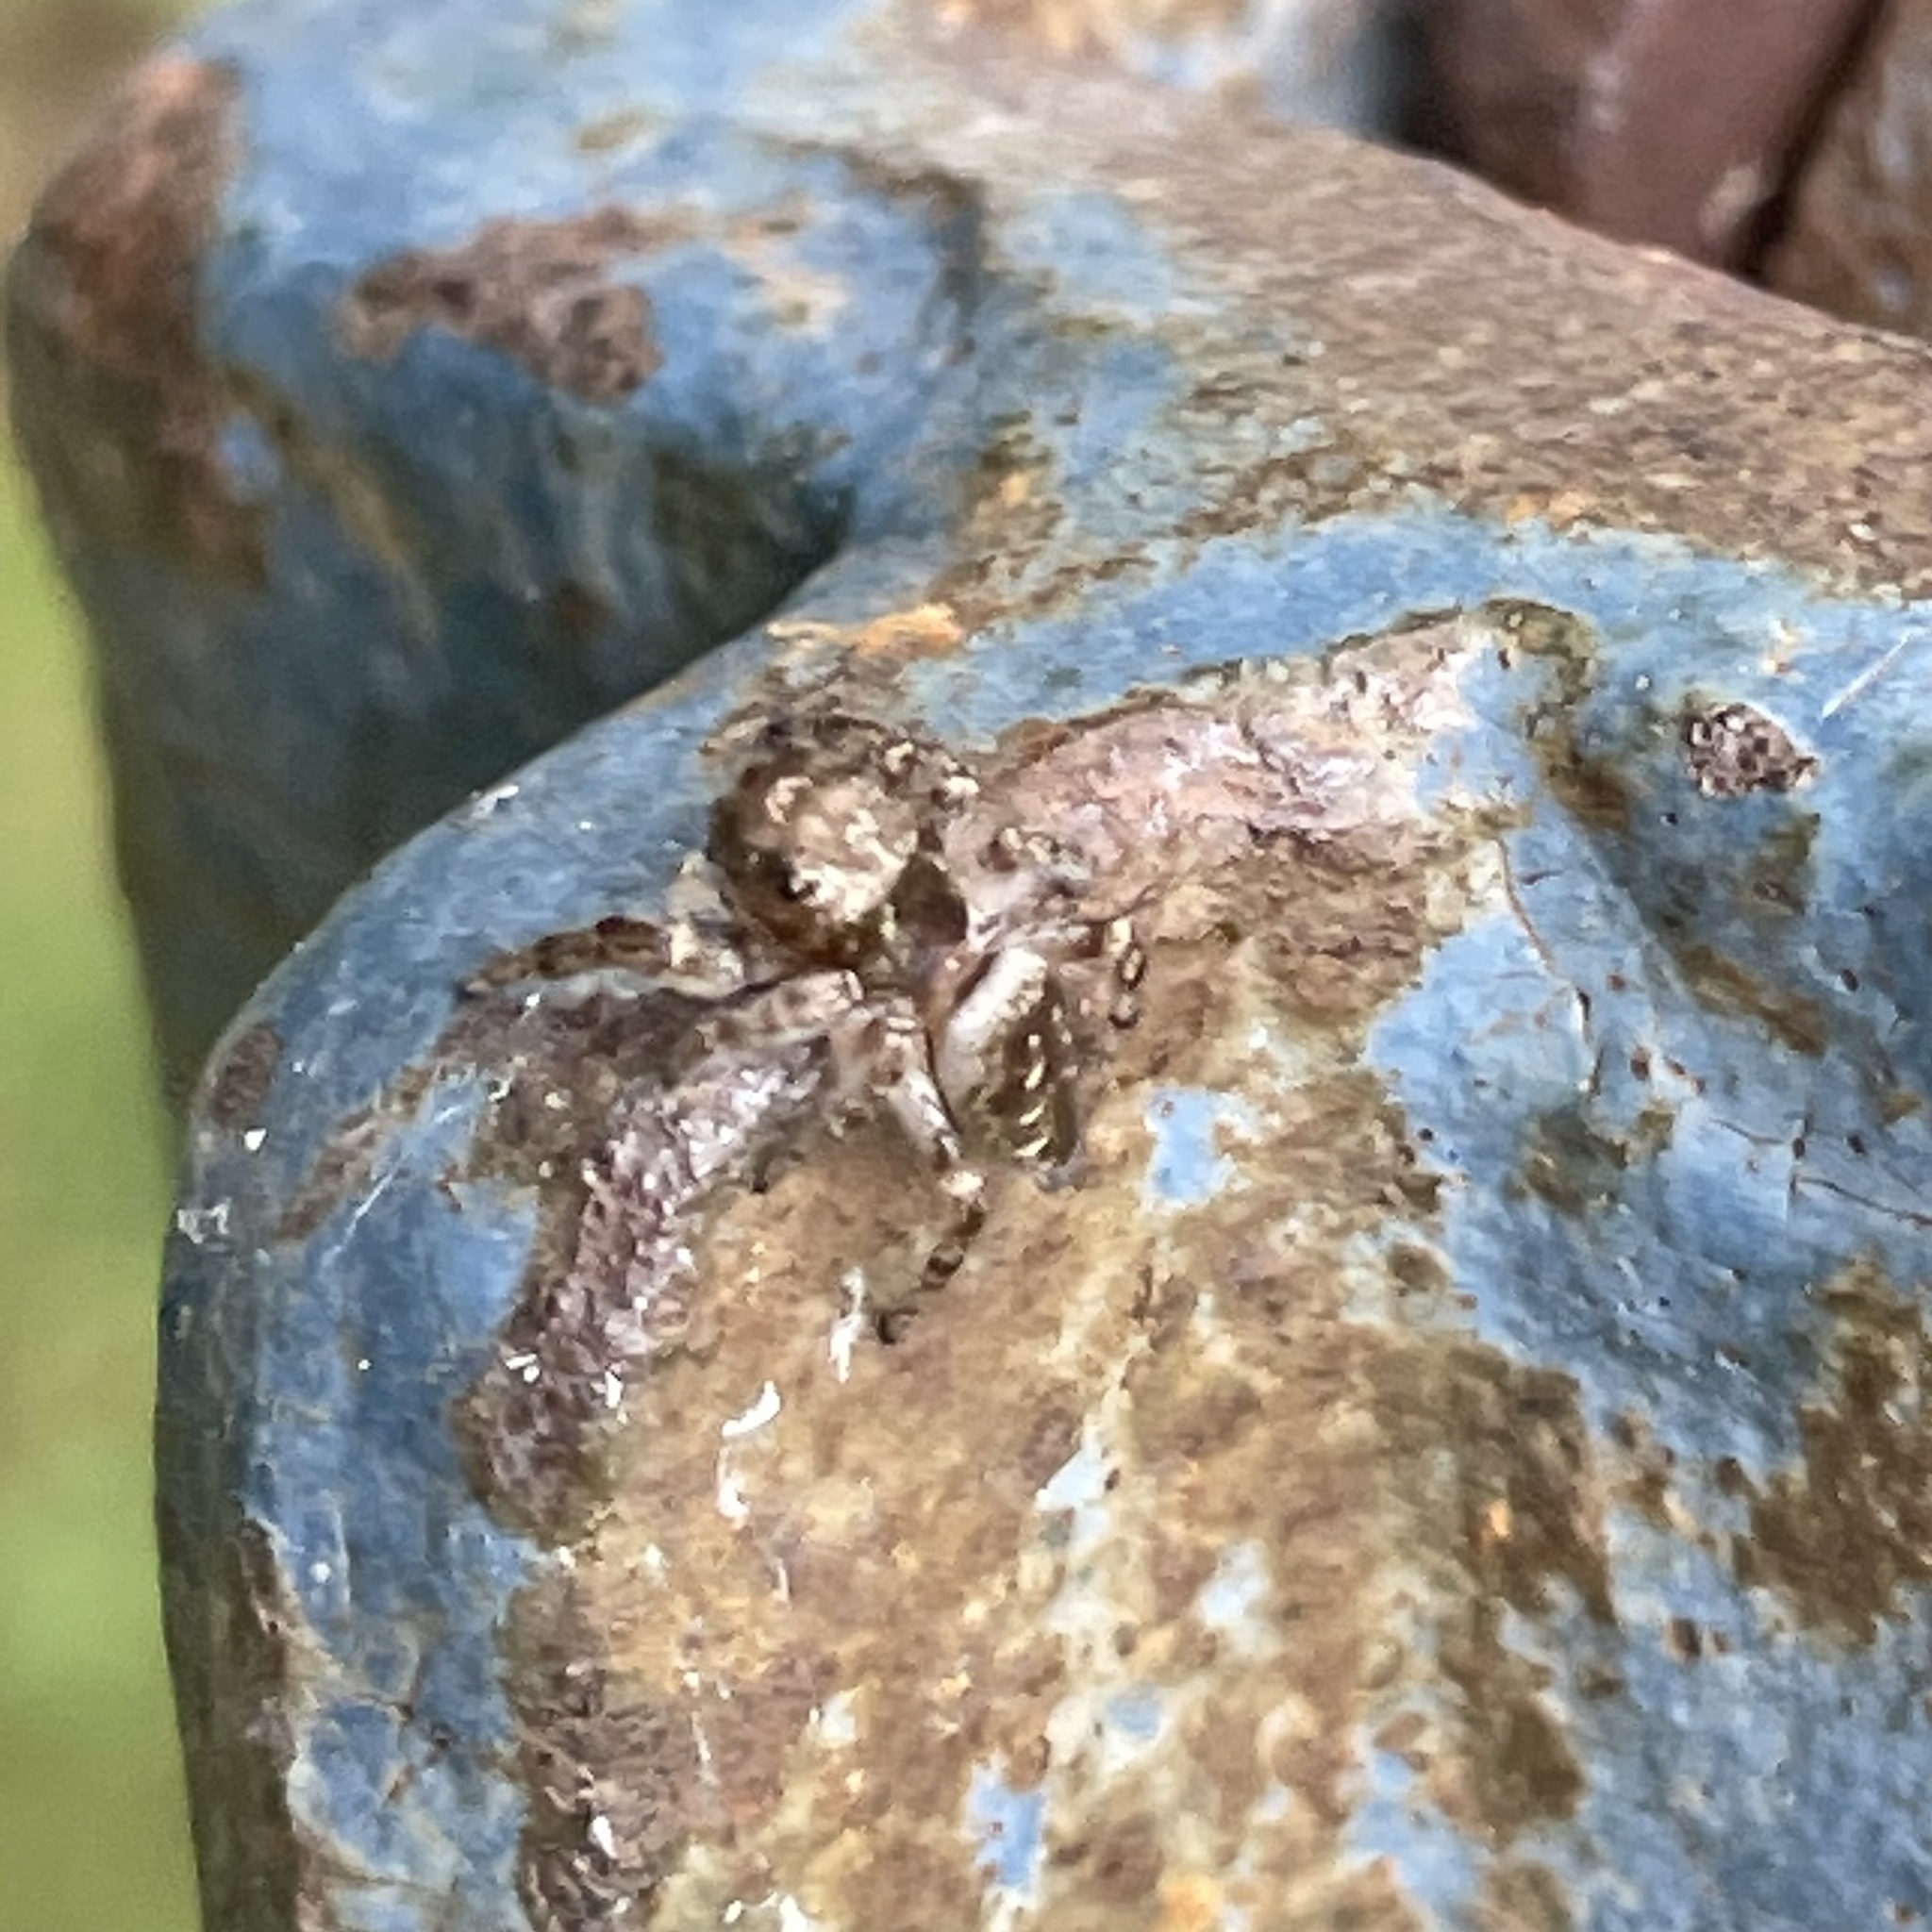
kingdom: Animalia
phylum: Arthropoda
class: Arachnida
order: Araneae
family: Salticidae
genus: Eris
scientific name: Eris militaris
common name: Bronze jumper
